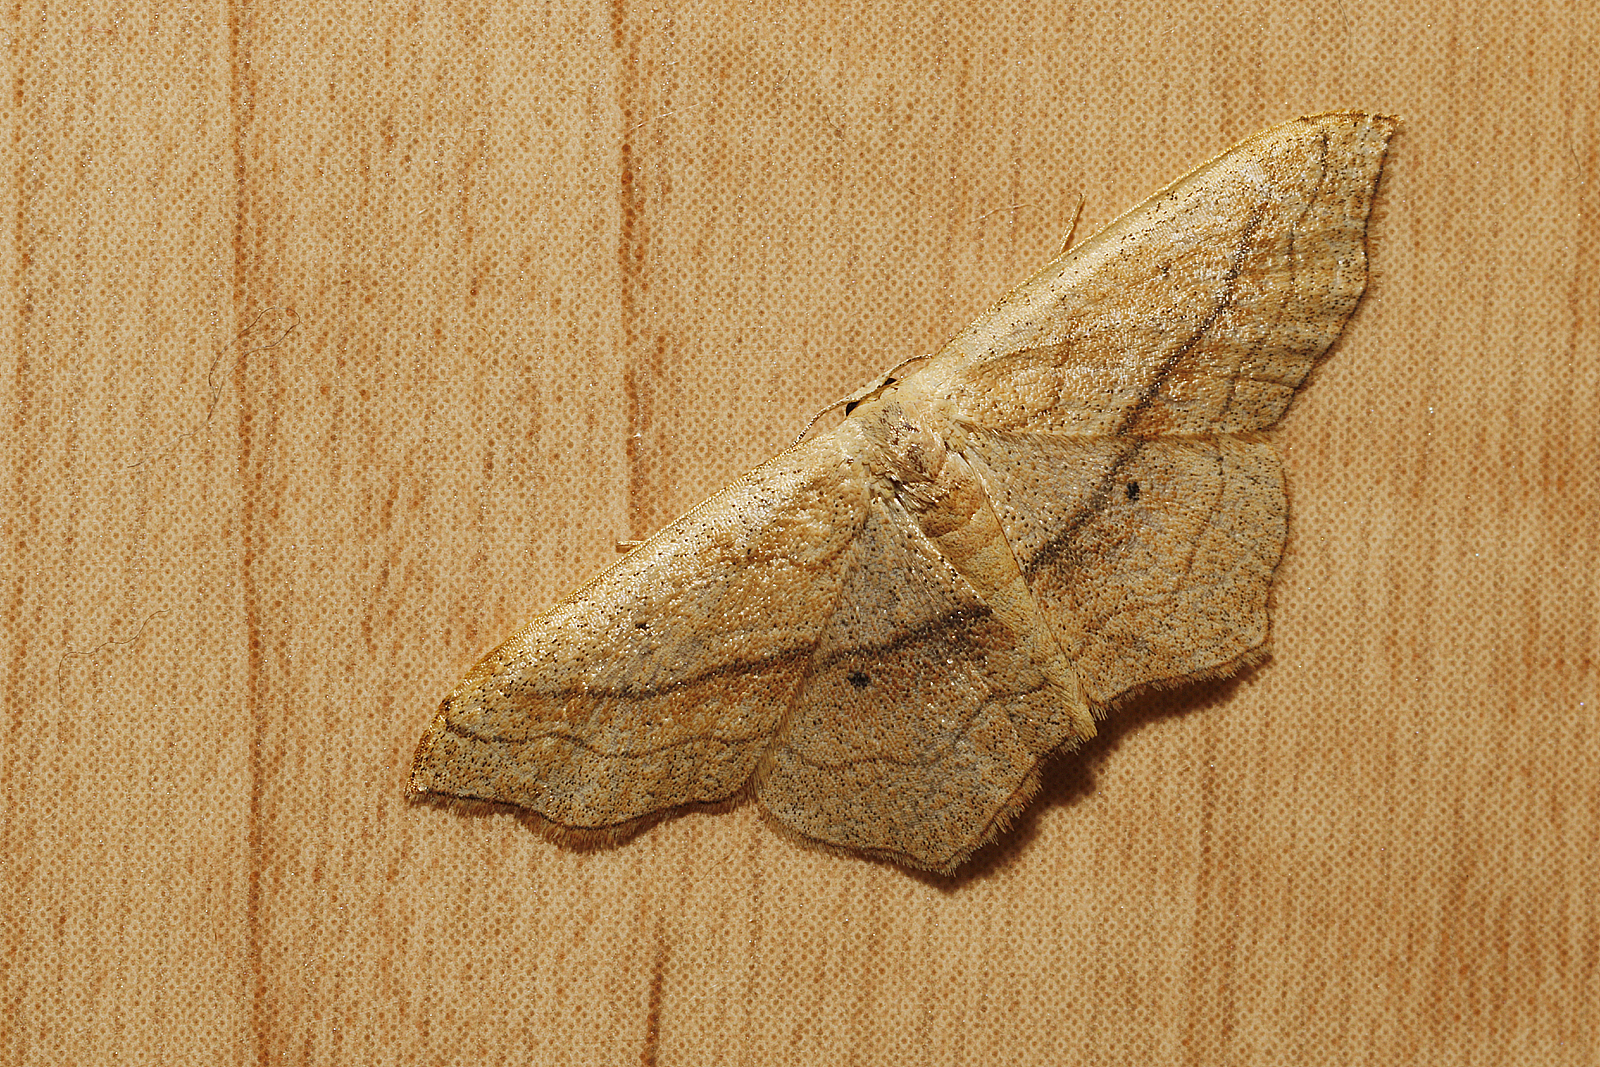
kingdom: Animalia
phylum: Arthropoda
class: Insecta
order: Lepidoptera
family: Geometridae
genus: Scopula
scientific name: Scopula imitaria
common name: Small blood-vein
